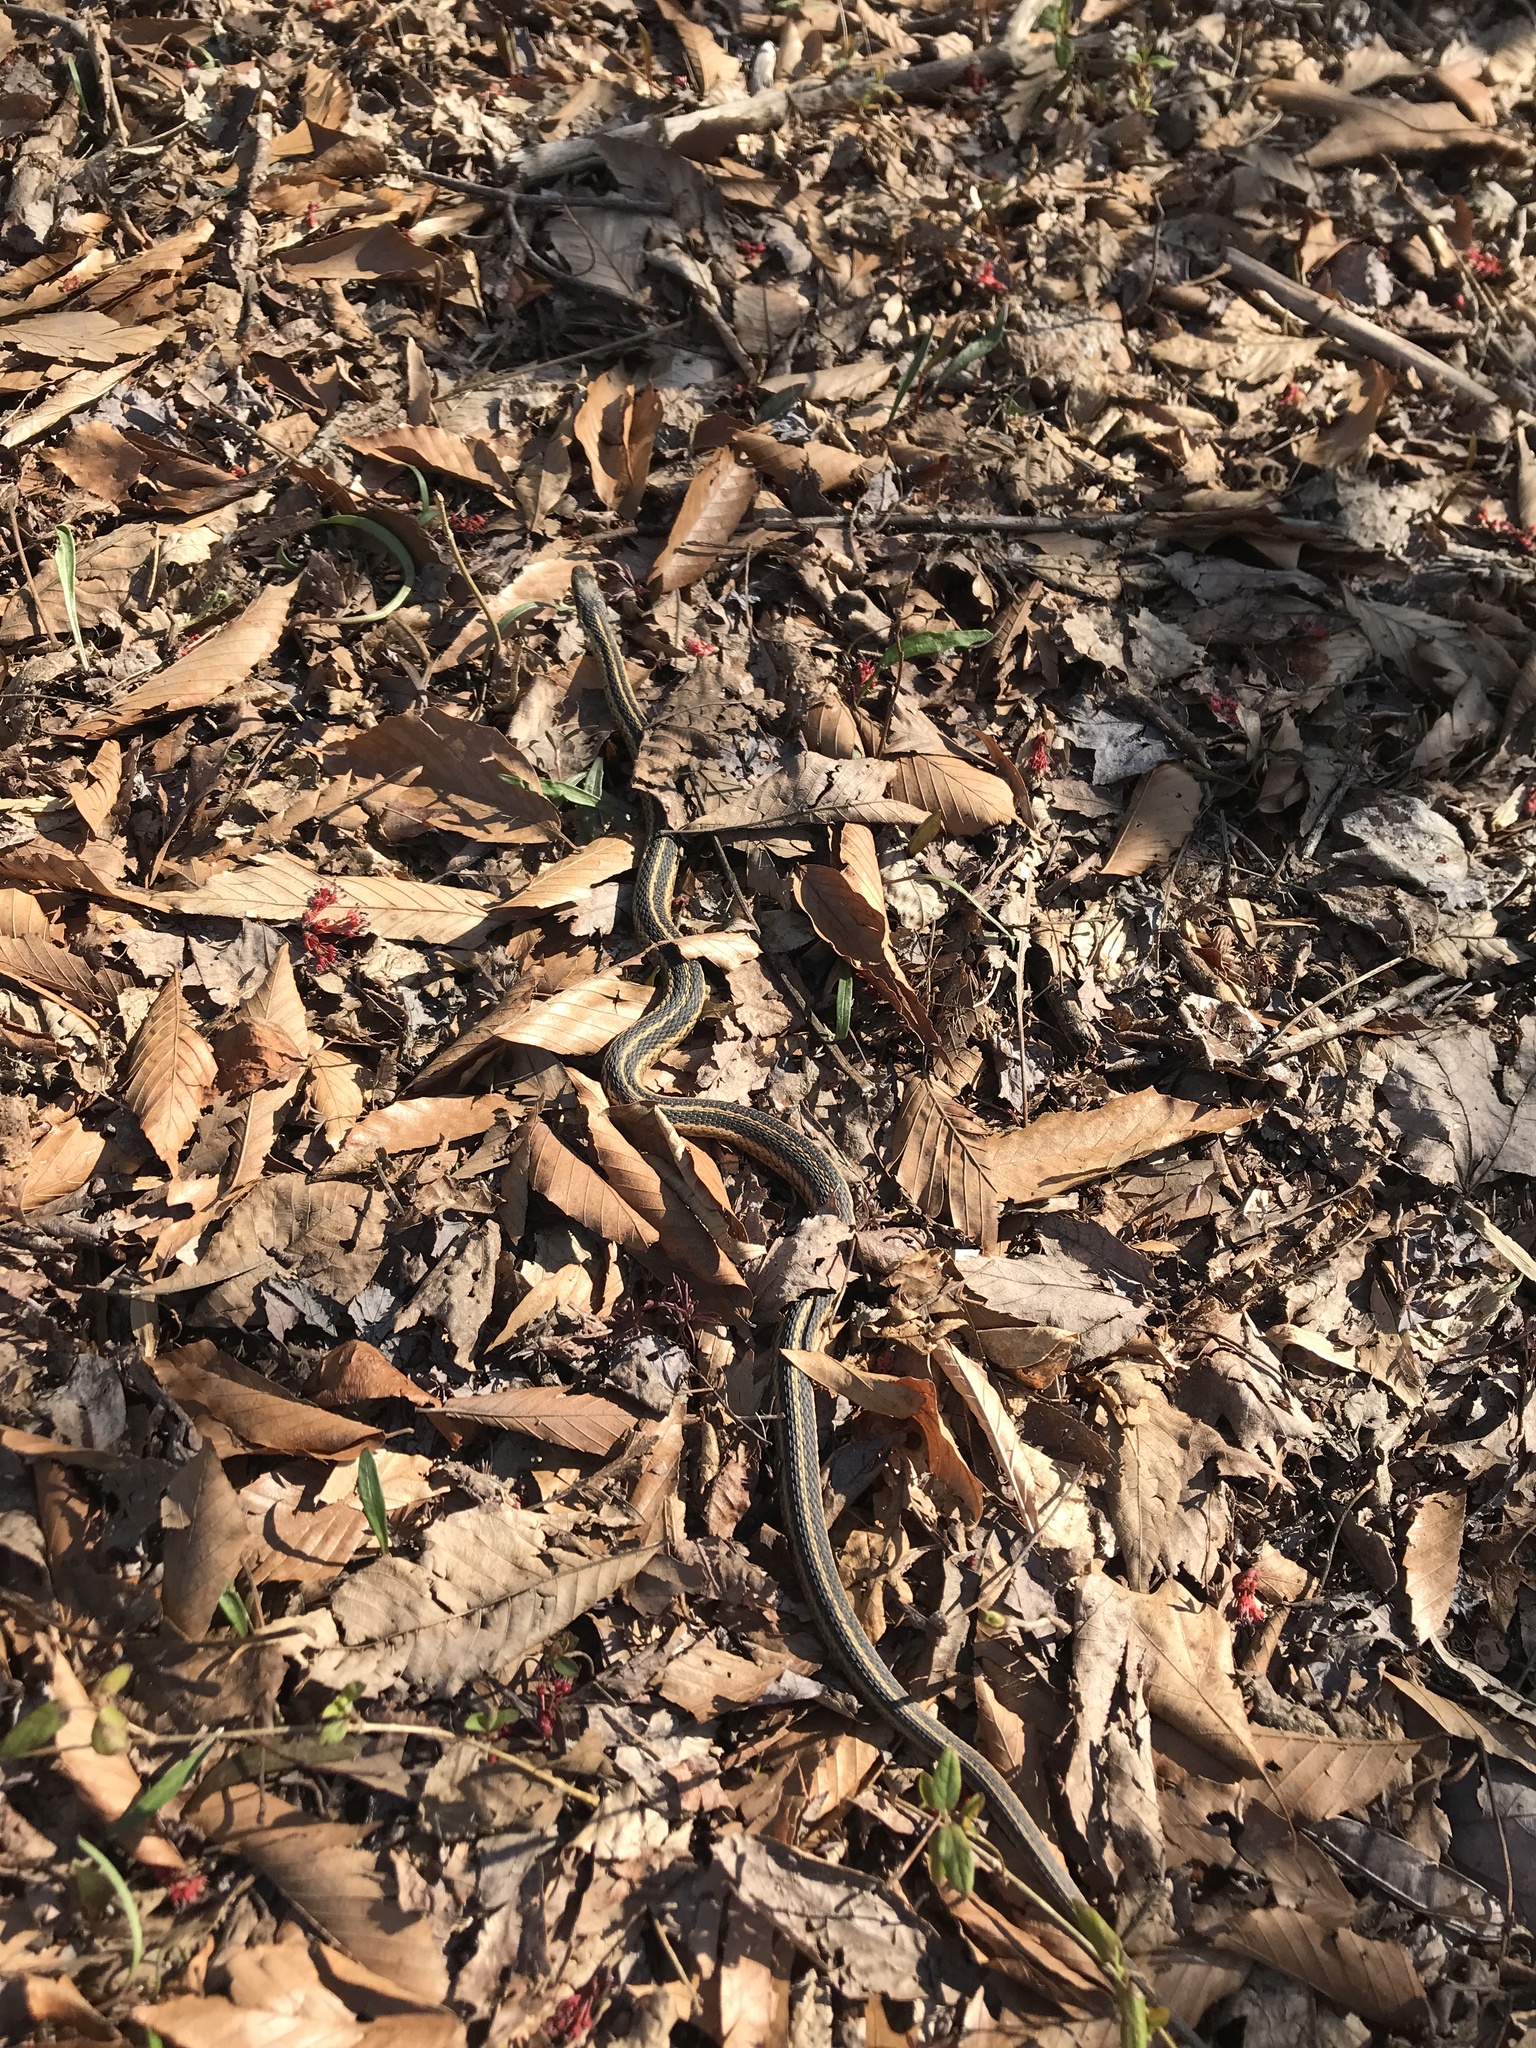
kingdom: Animalia
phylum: Chordata
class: Squamata
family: Colubridae
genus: Thamnophis
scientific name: Thamnophis sirtalis
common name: Common garter snake
